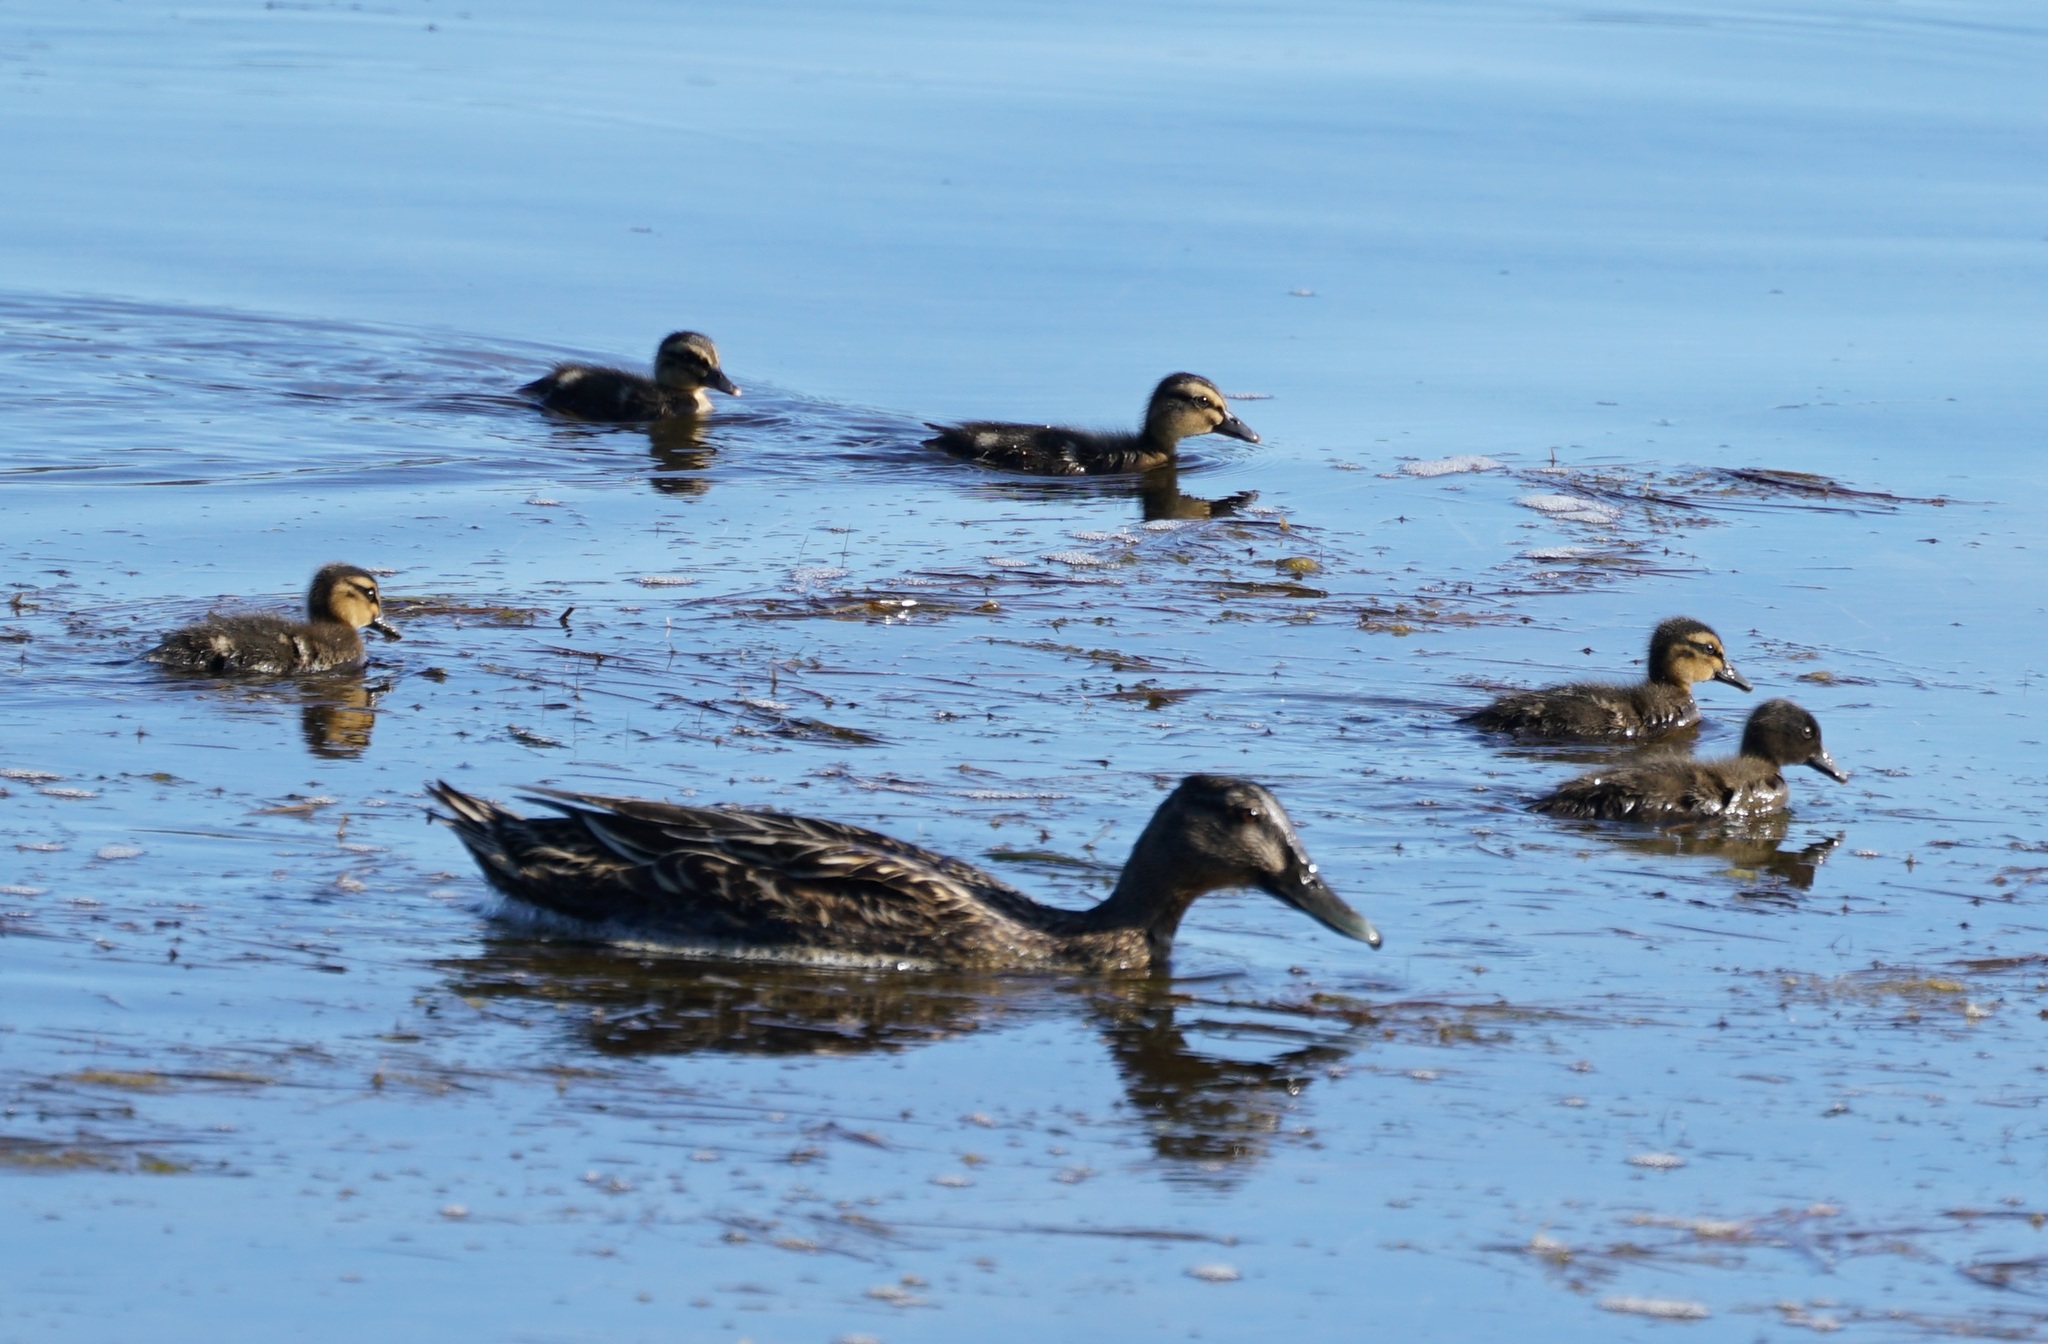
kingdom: Animalia
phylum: Chordata
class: Aves
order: Anseriformes
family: Anatidae
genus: Anas
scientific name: Anas
